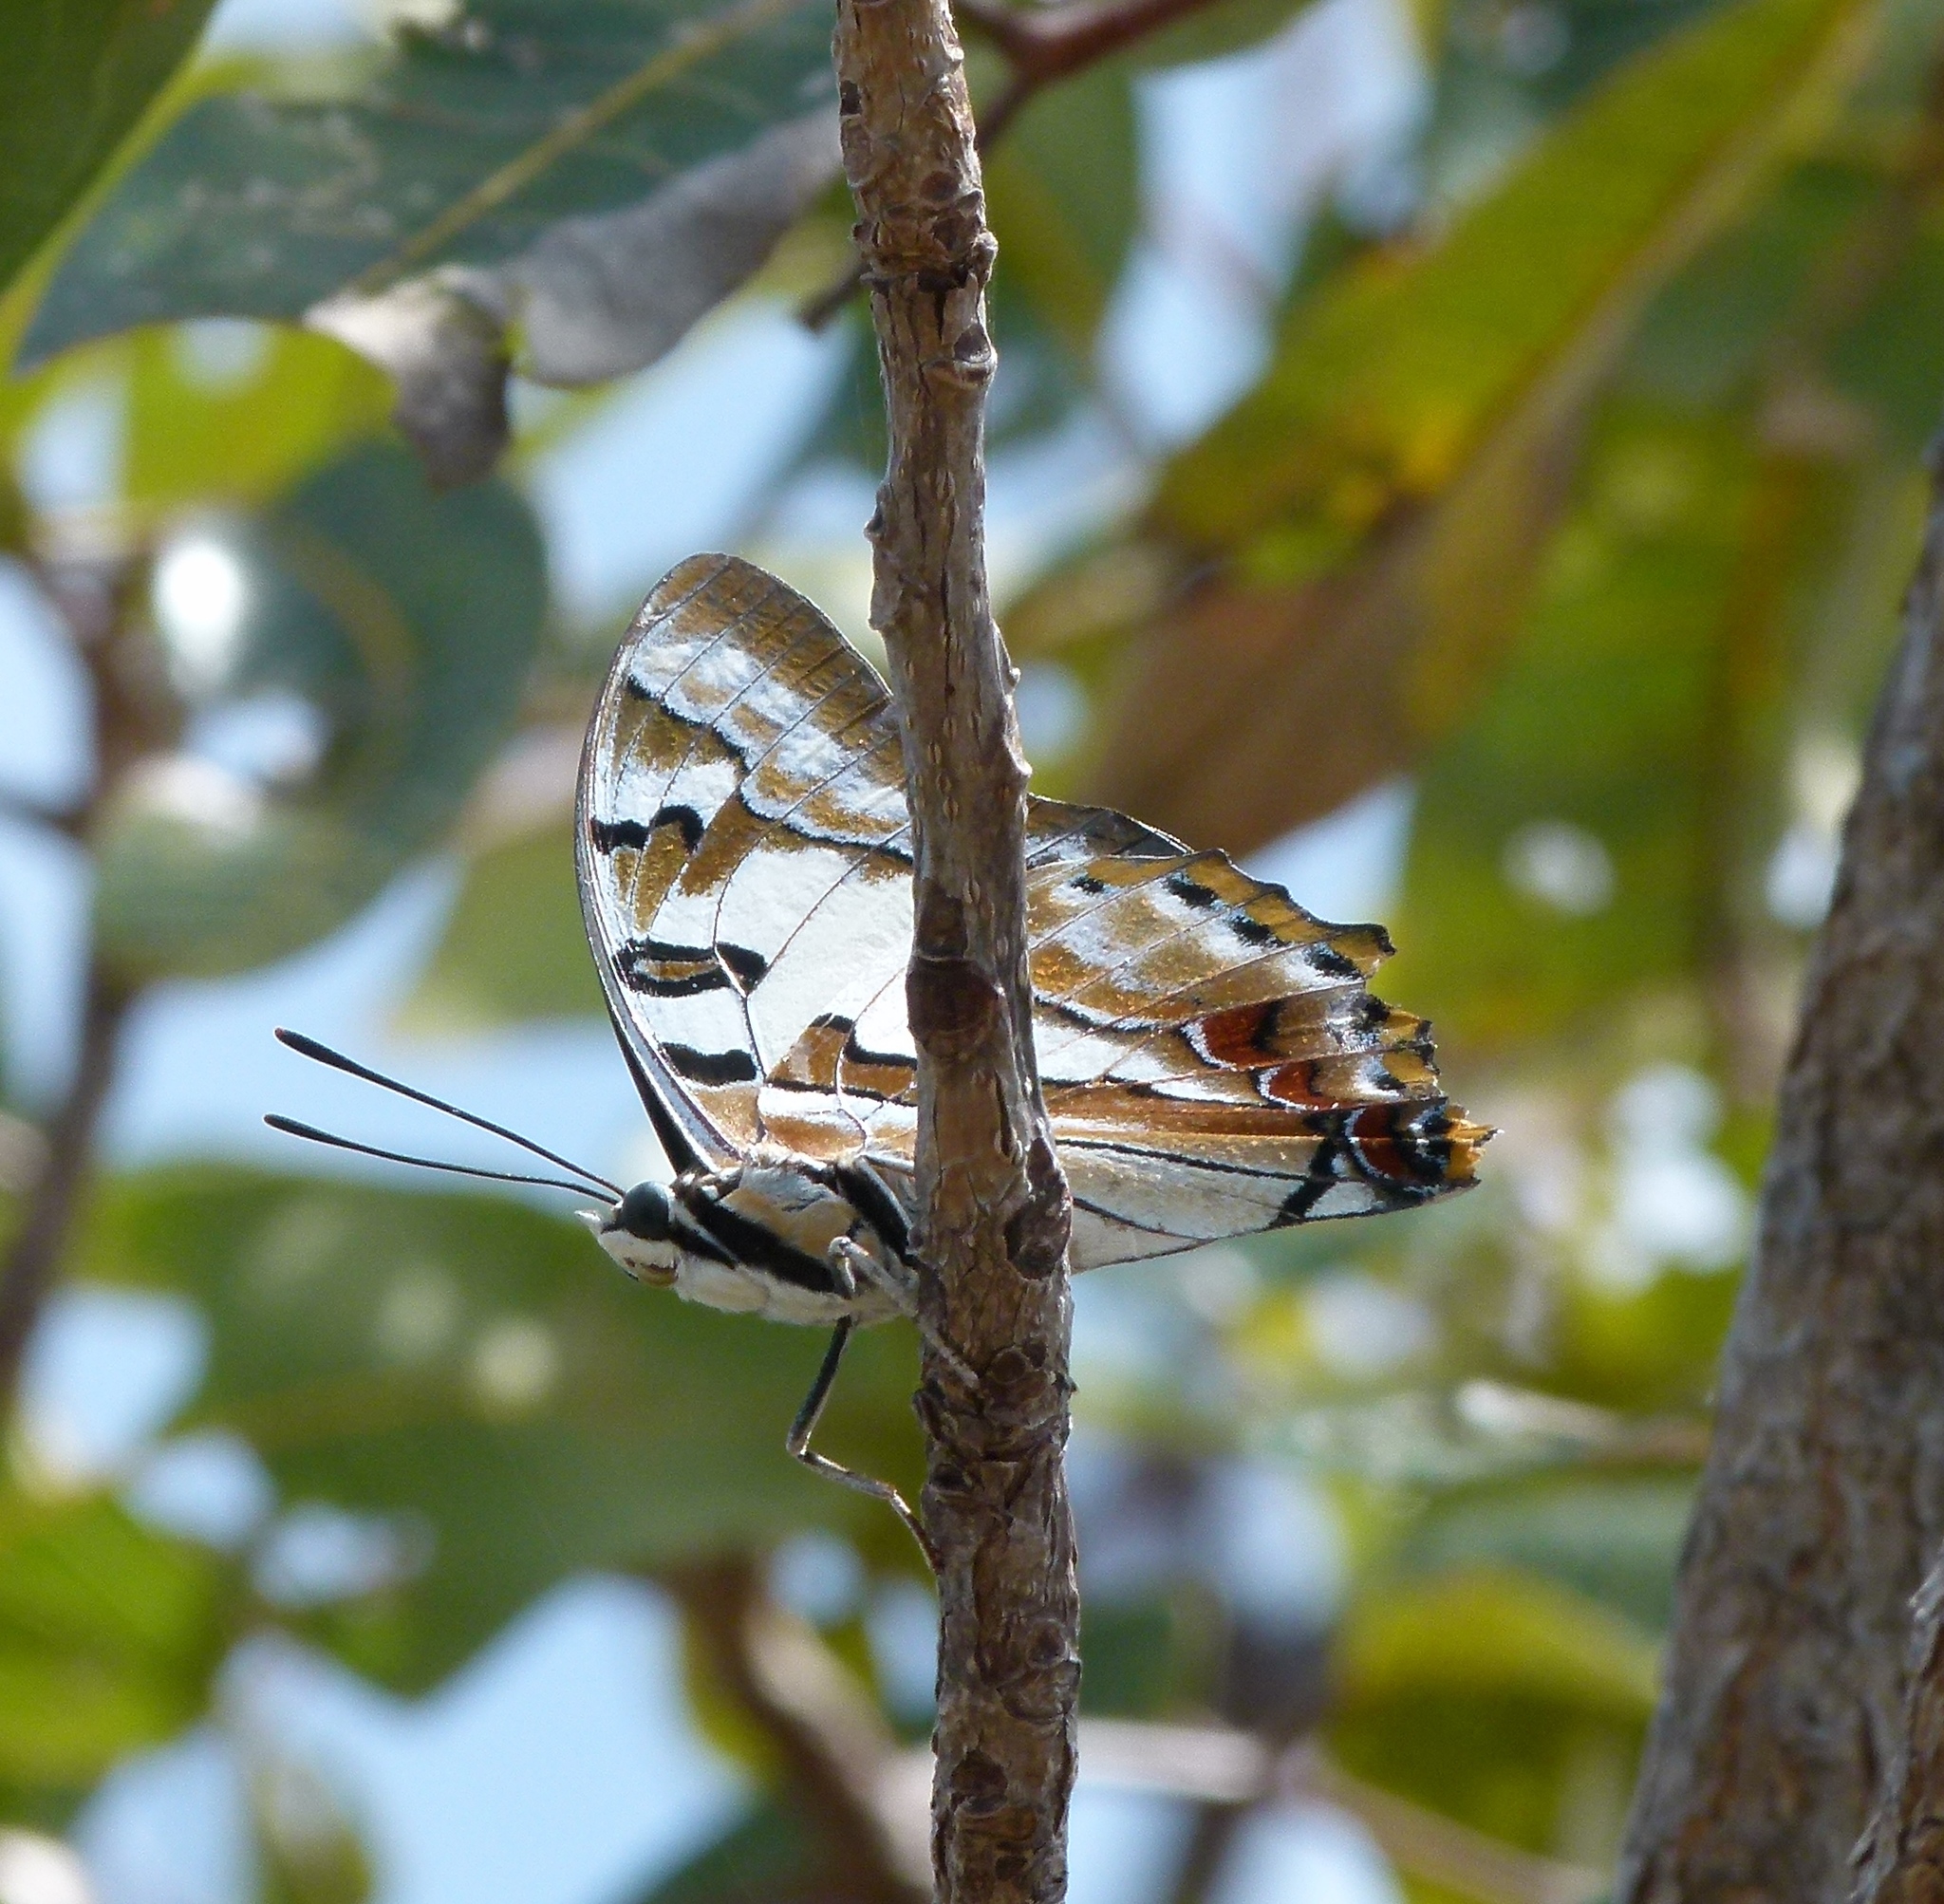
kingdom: Animalia
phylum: Arthropoda
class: Insecta
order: Lepidoptera
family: Nymphalidae
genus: Charaxes
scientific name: Charaxes
